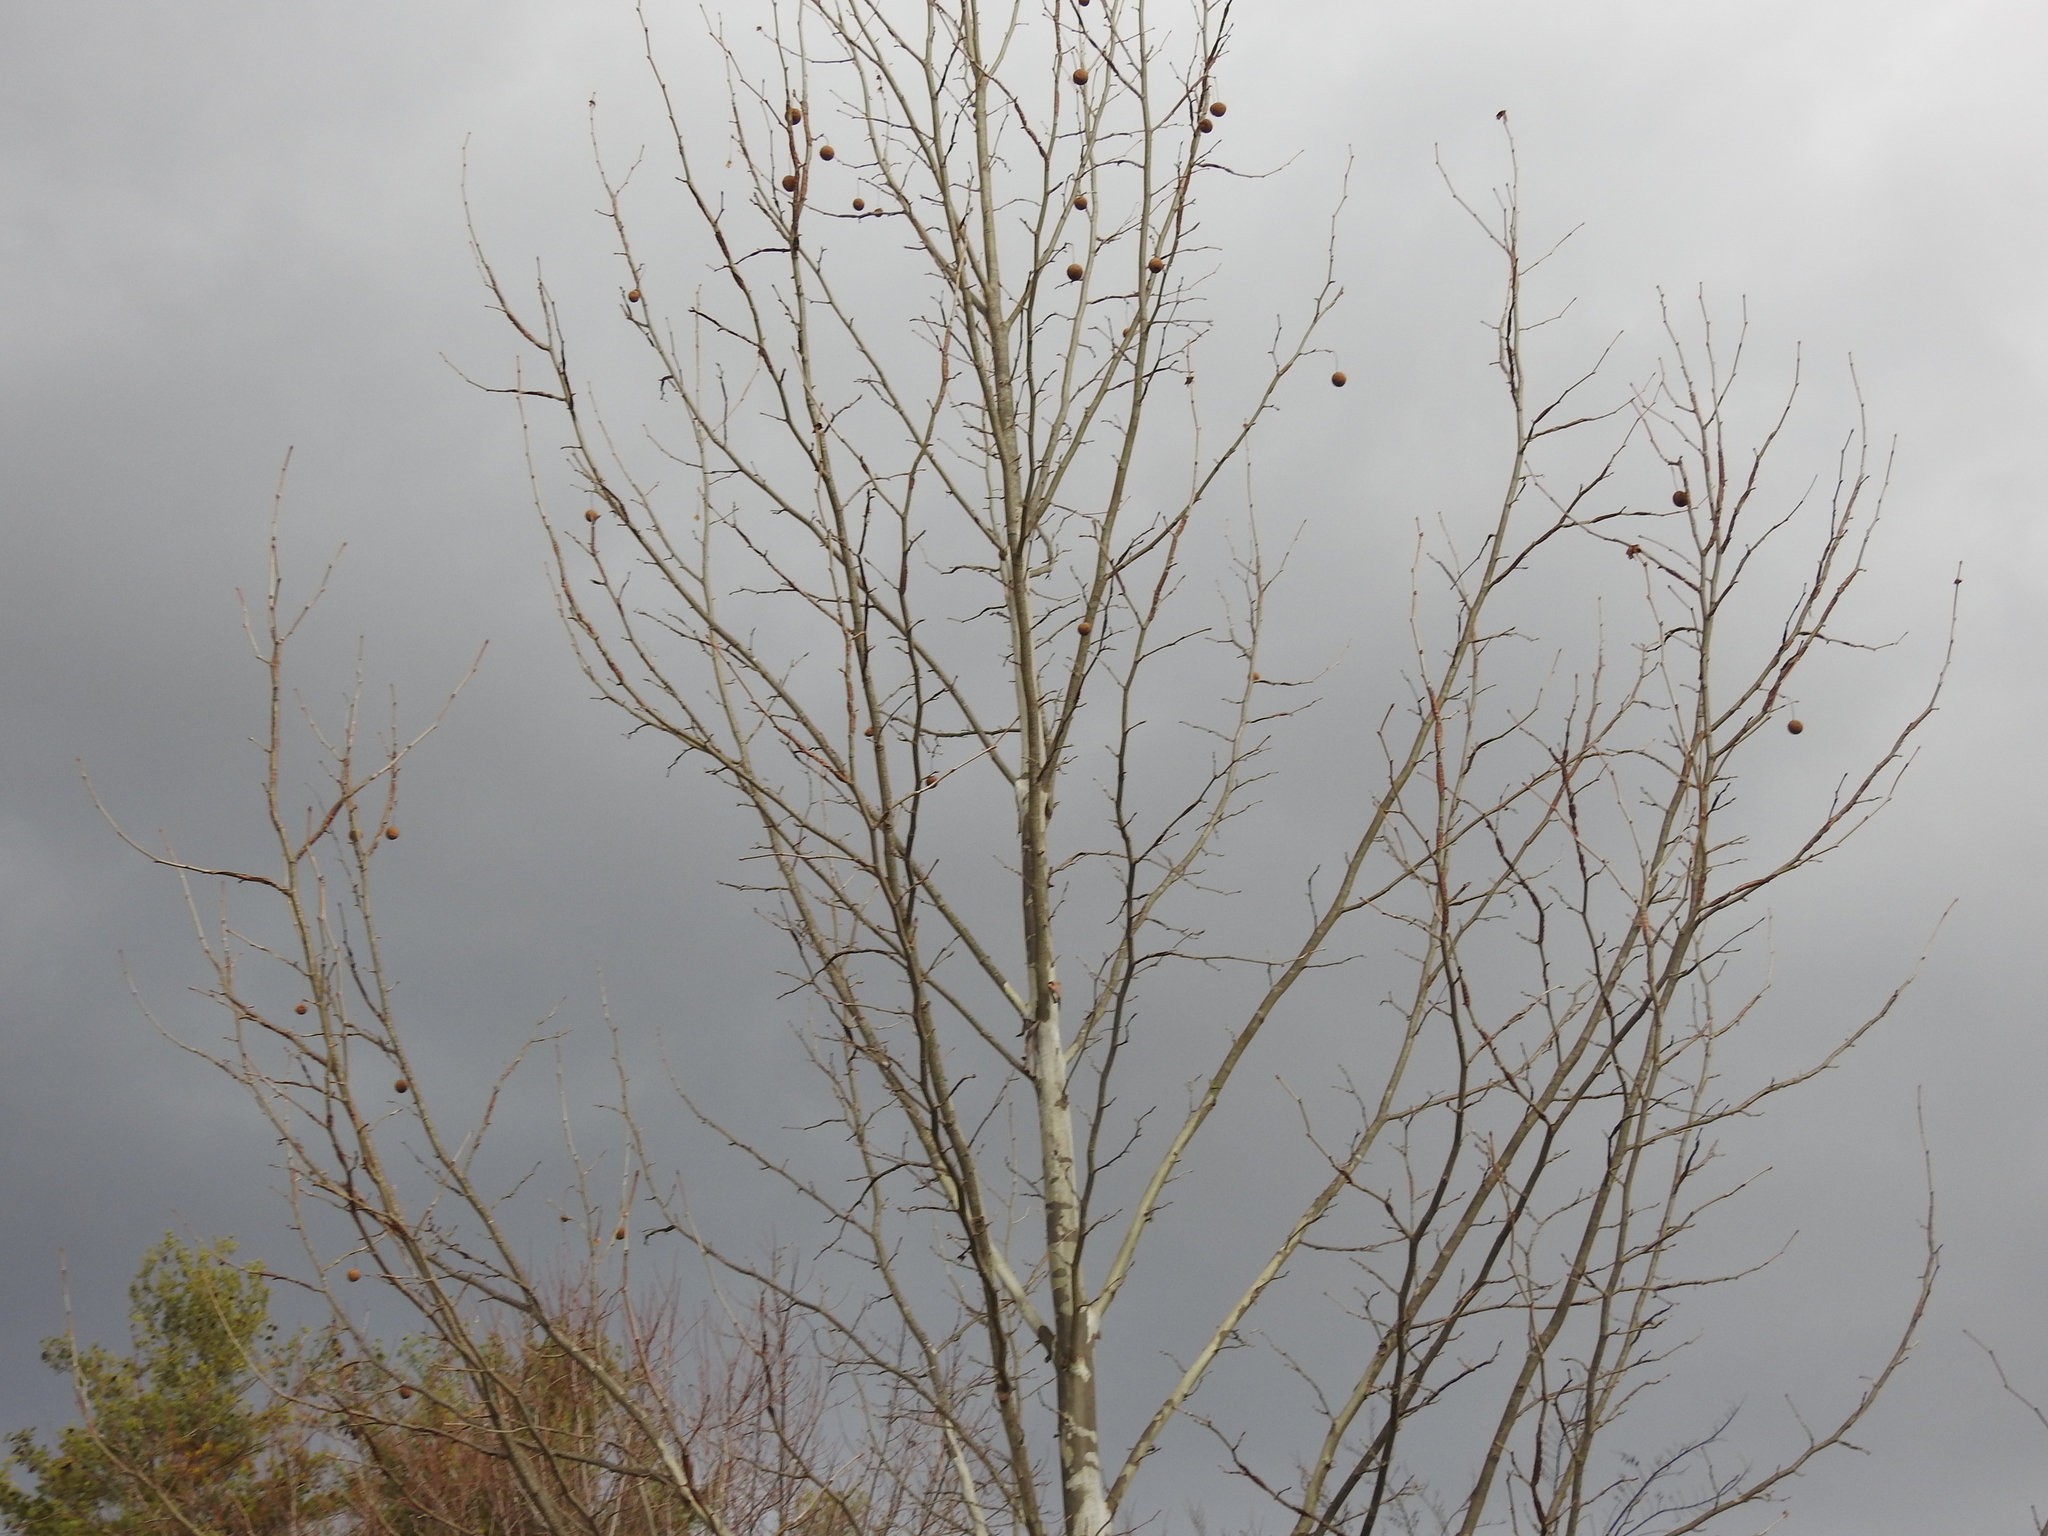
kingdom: Plantae
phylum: Tracheophyta
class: Magnoliopsida
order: Proteales
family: Platanaceae
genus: Platanus
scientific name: Platanus occidentalis
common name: American sycamore
